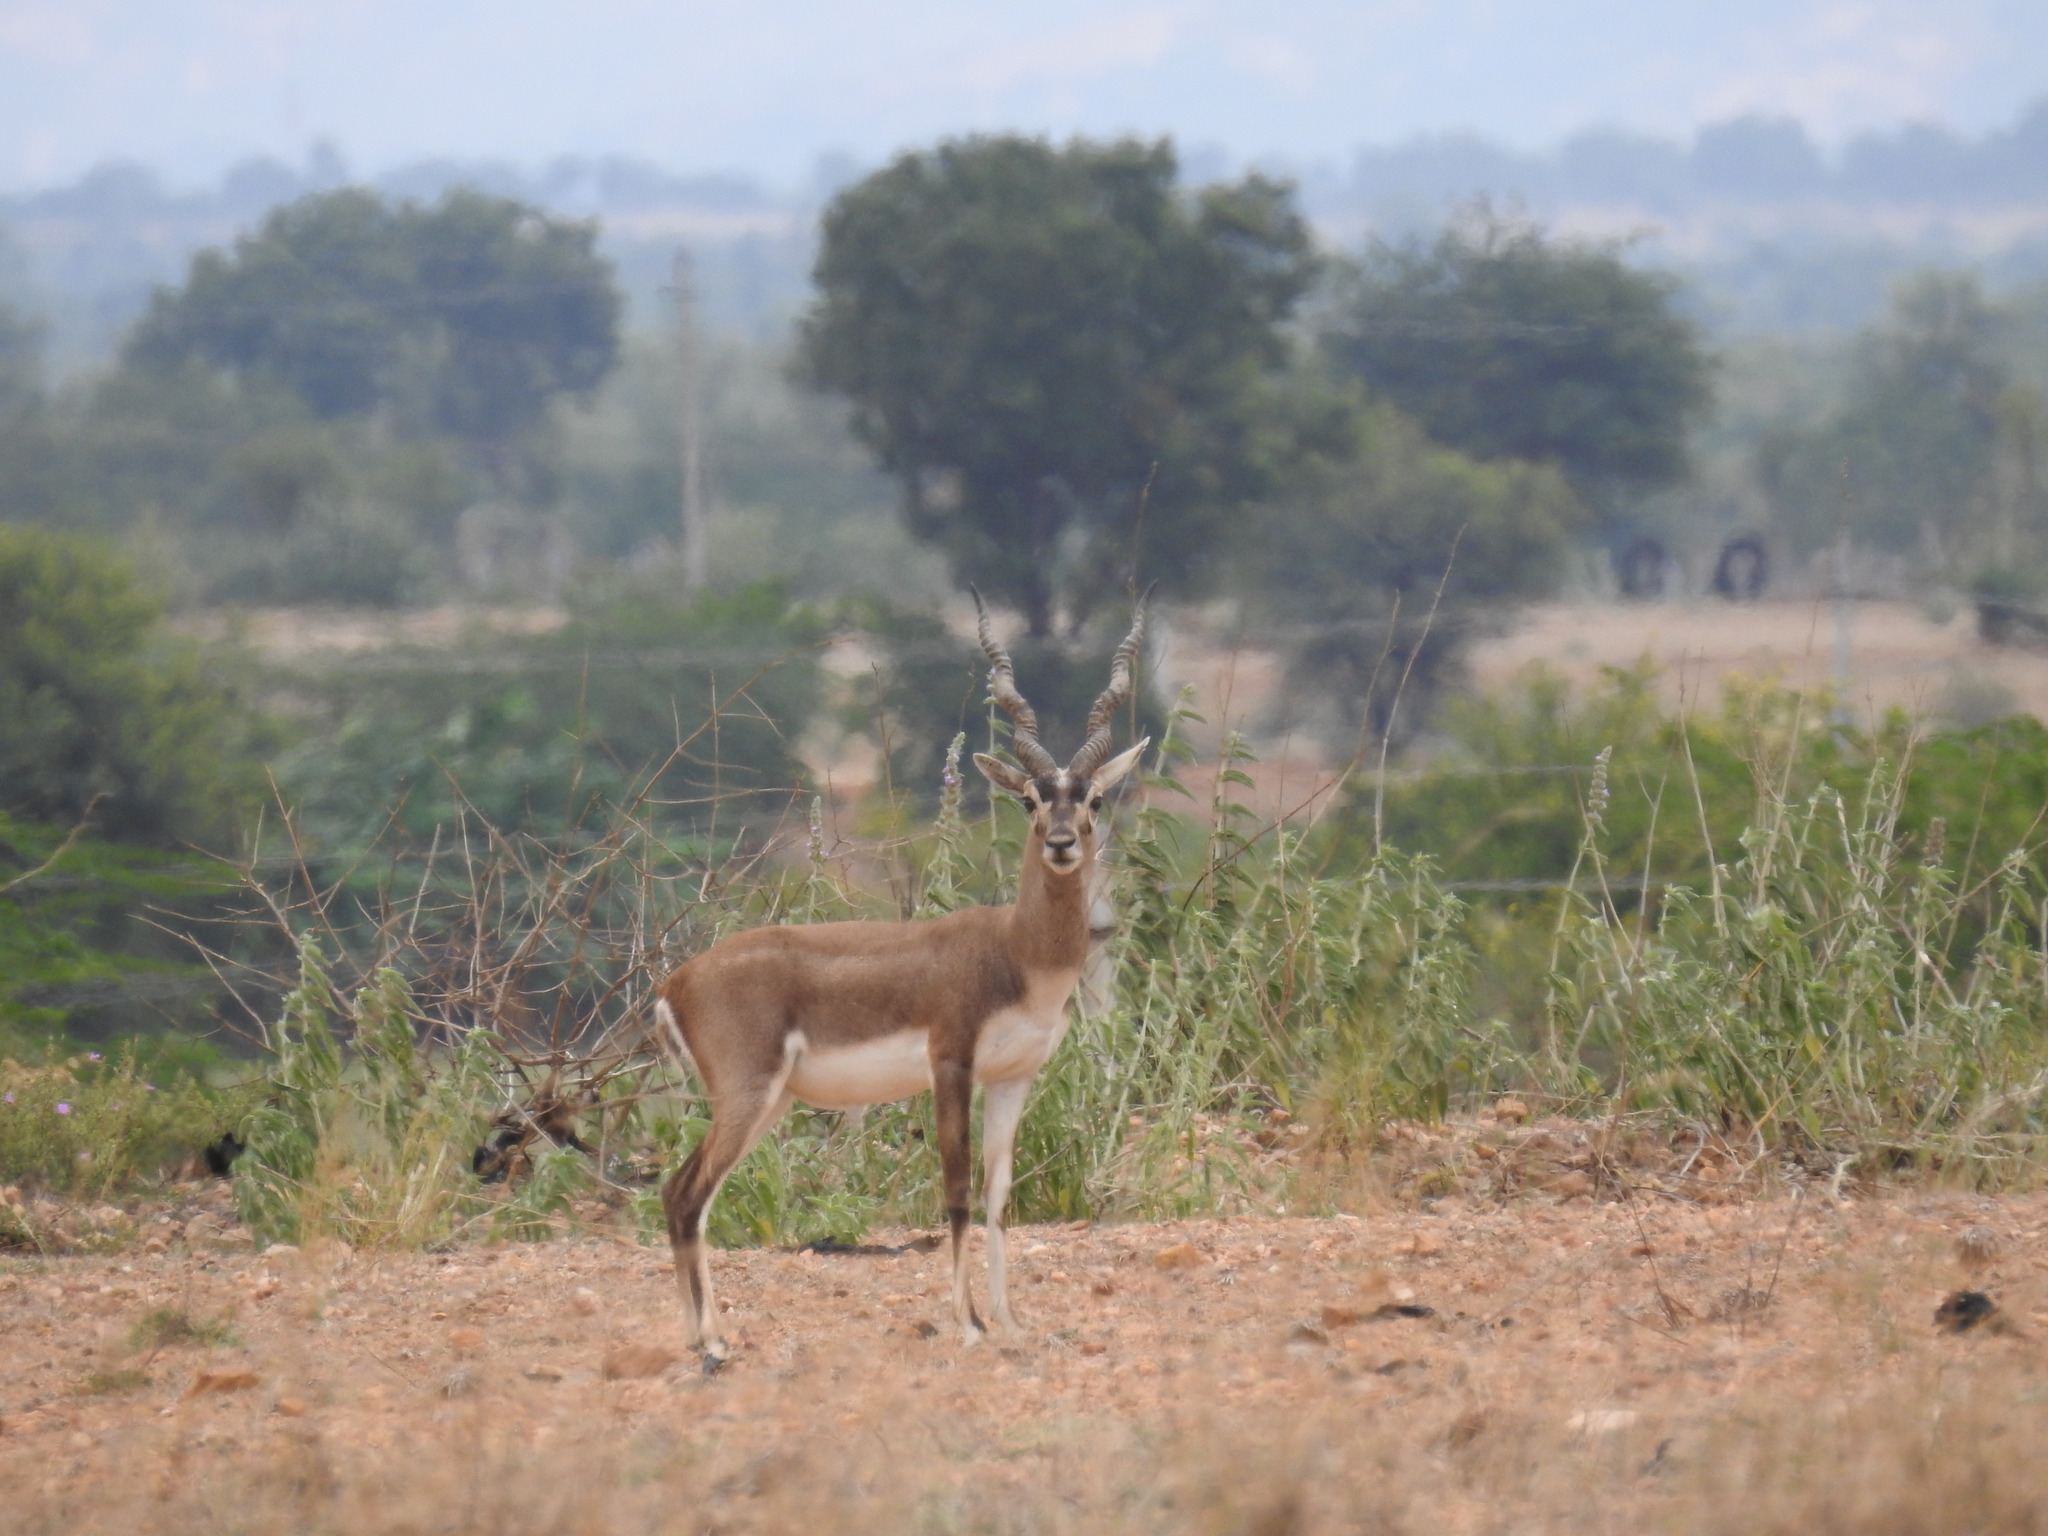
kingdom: Animalia
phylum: Chordata
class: Mammalia
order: Artiodactyla
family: Bovidae
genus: Antilope
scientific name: Antilope cervicapra
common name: Blackbuck
